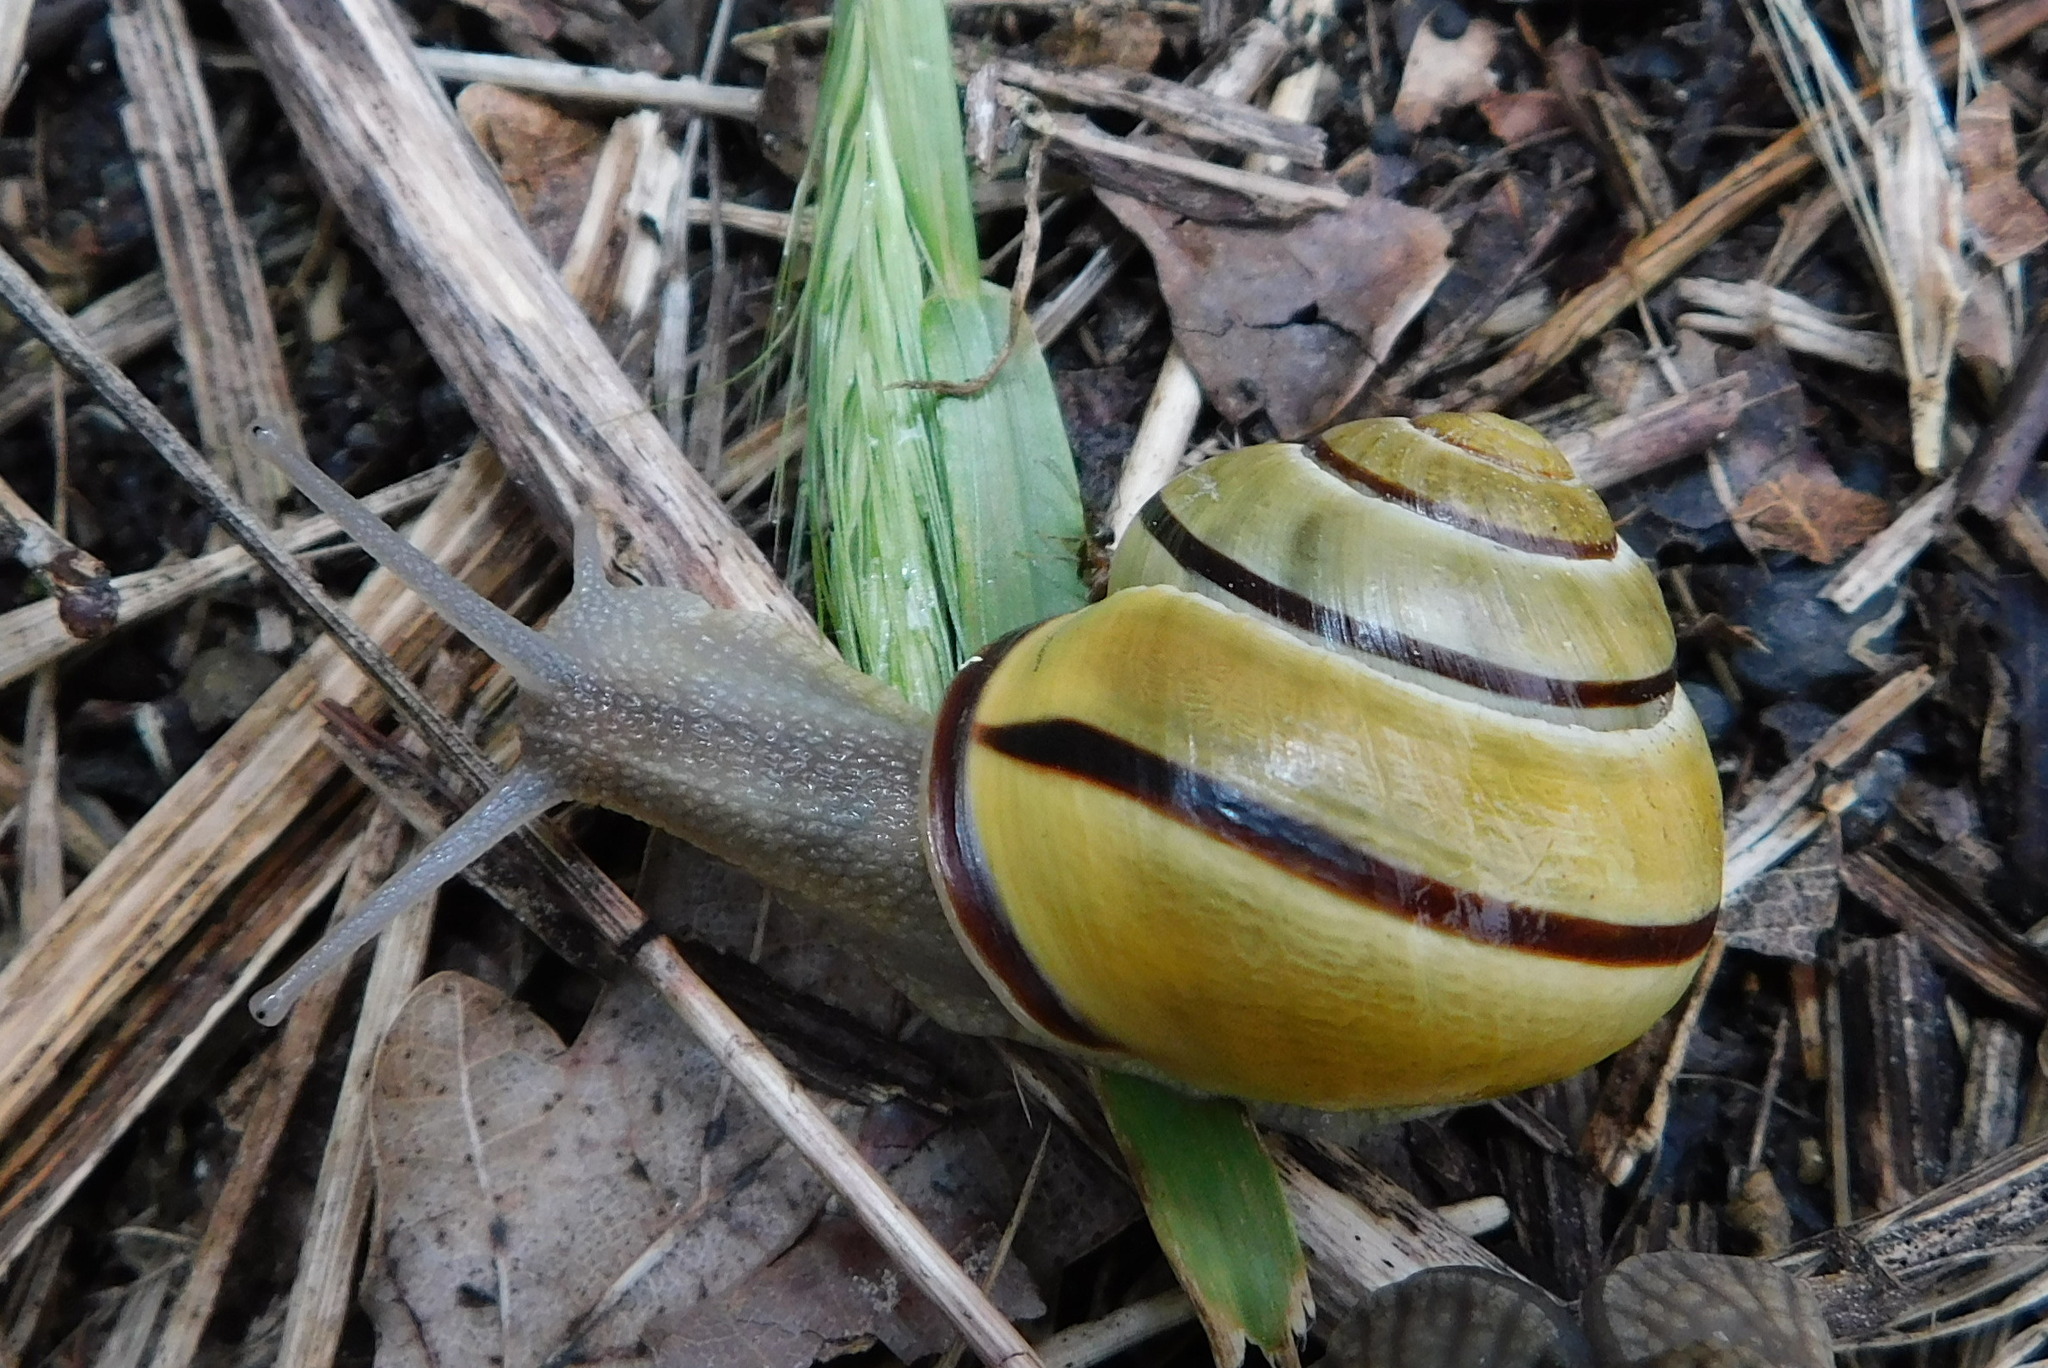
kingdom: Animalia
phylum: Mollusca
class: Gastropoda
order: Stylommatophora
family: Helicidae
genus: Cepaea
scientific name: Cepaea nemoralis
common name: Grovesnail
